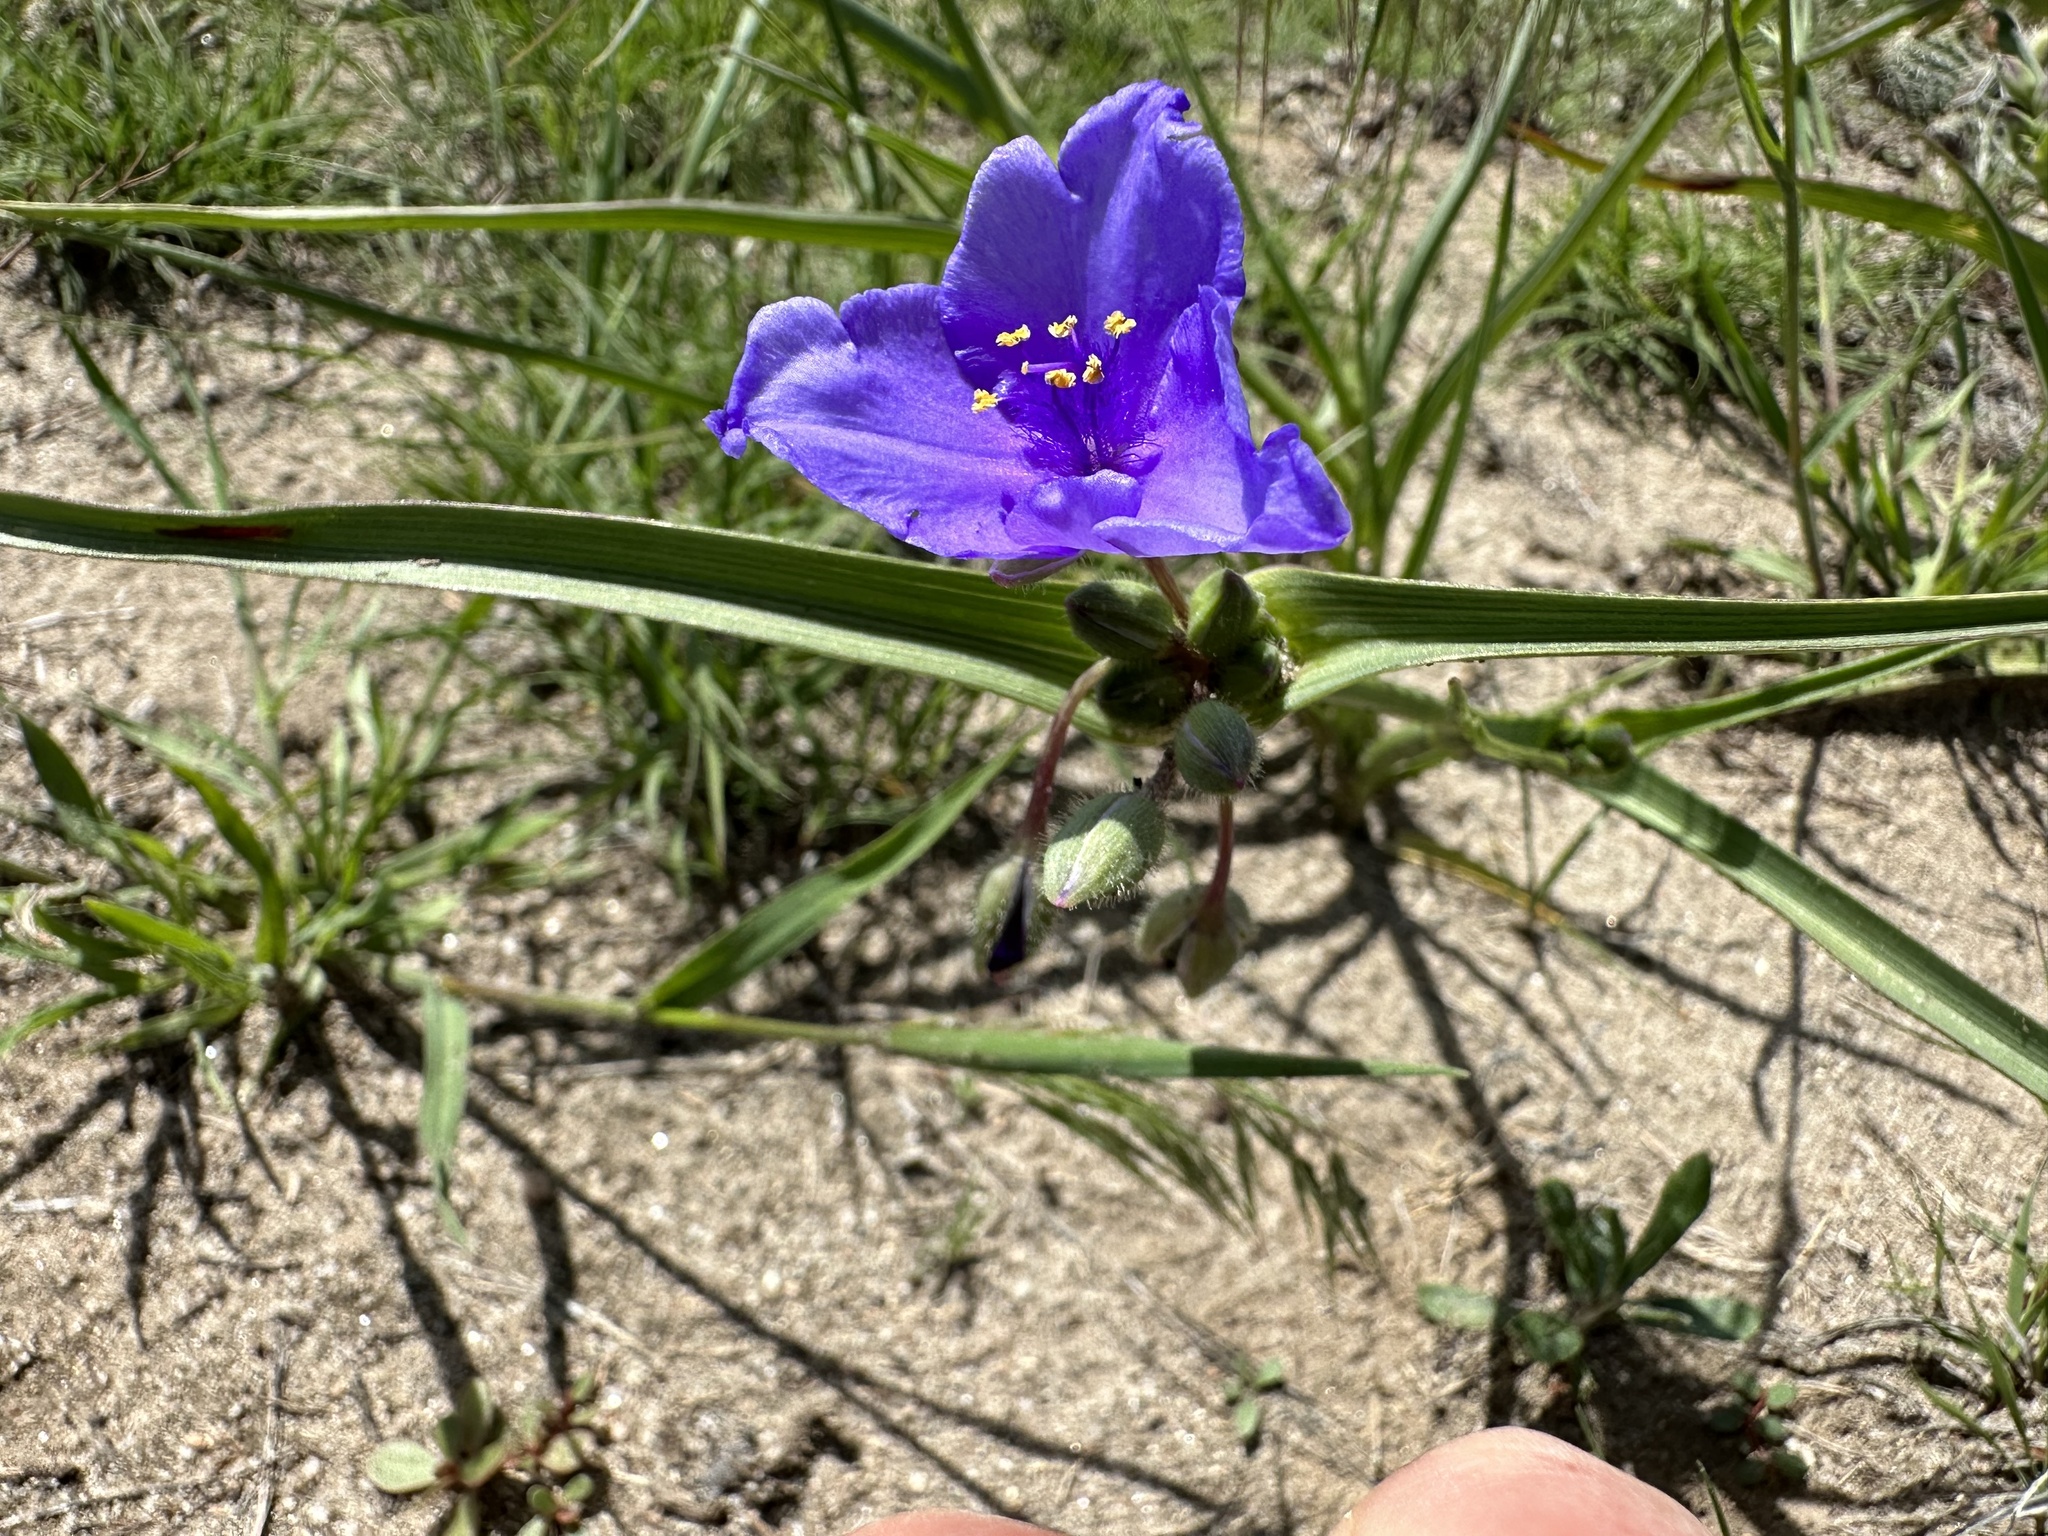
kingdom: Plantae
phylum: Tracheophyta
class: Liliopsida
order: Commelinales
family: Commelinaceae
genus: Tradescantia
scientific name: Tradescantia occidentalis
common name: Prairie spiderwort
